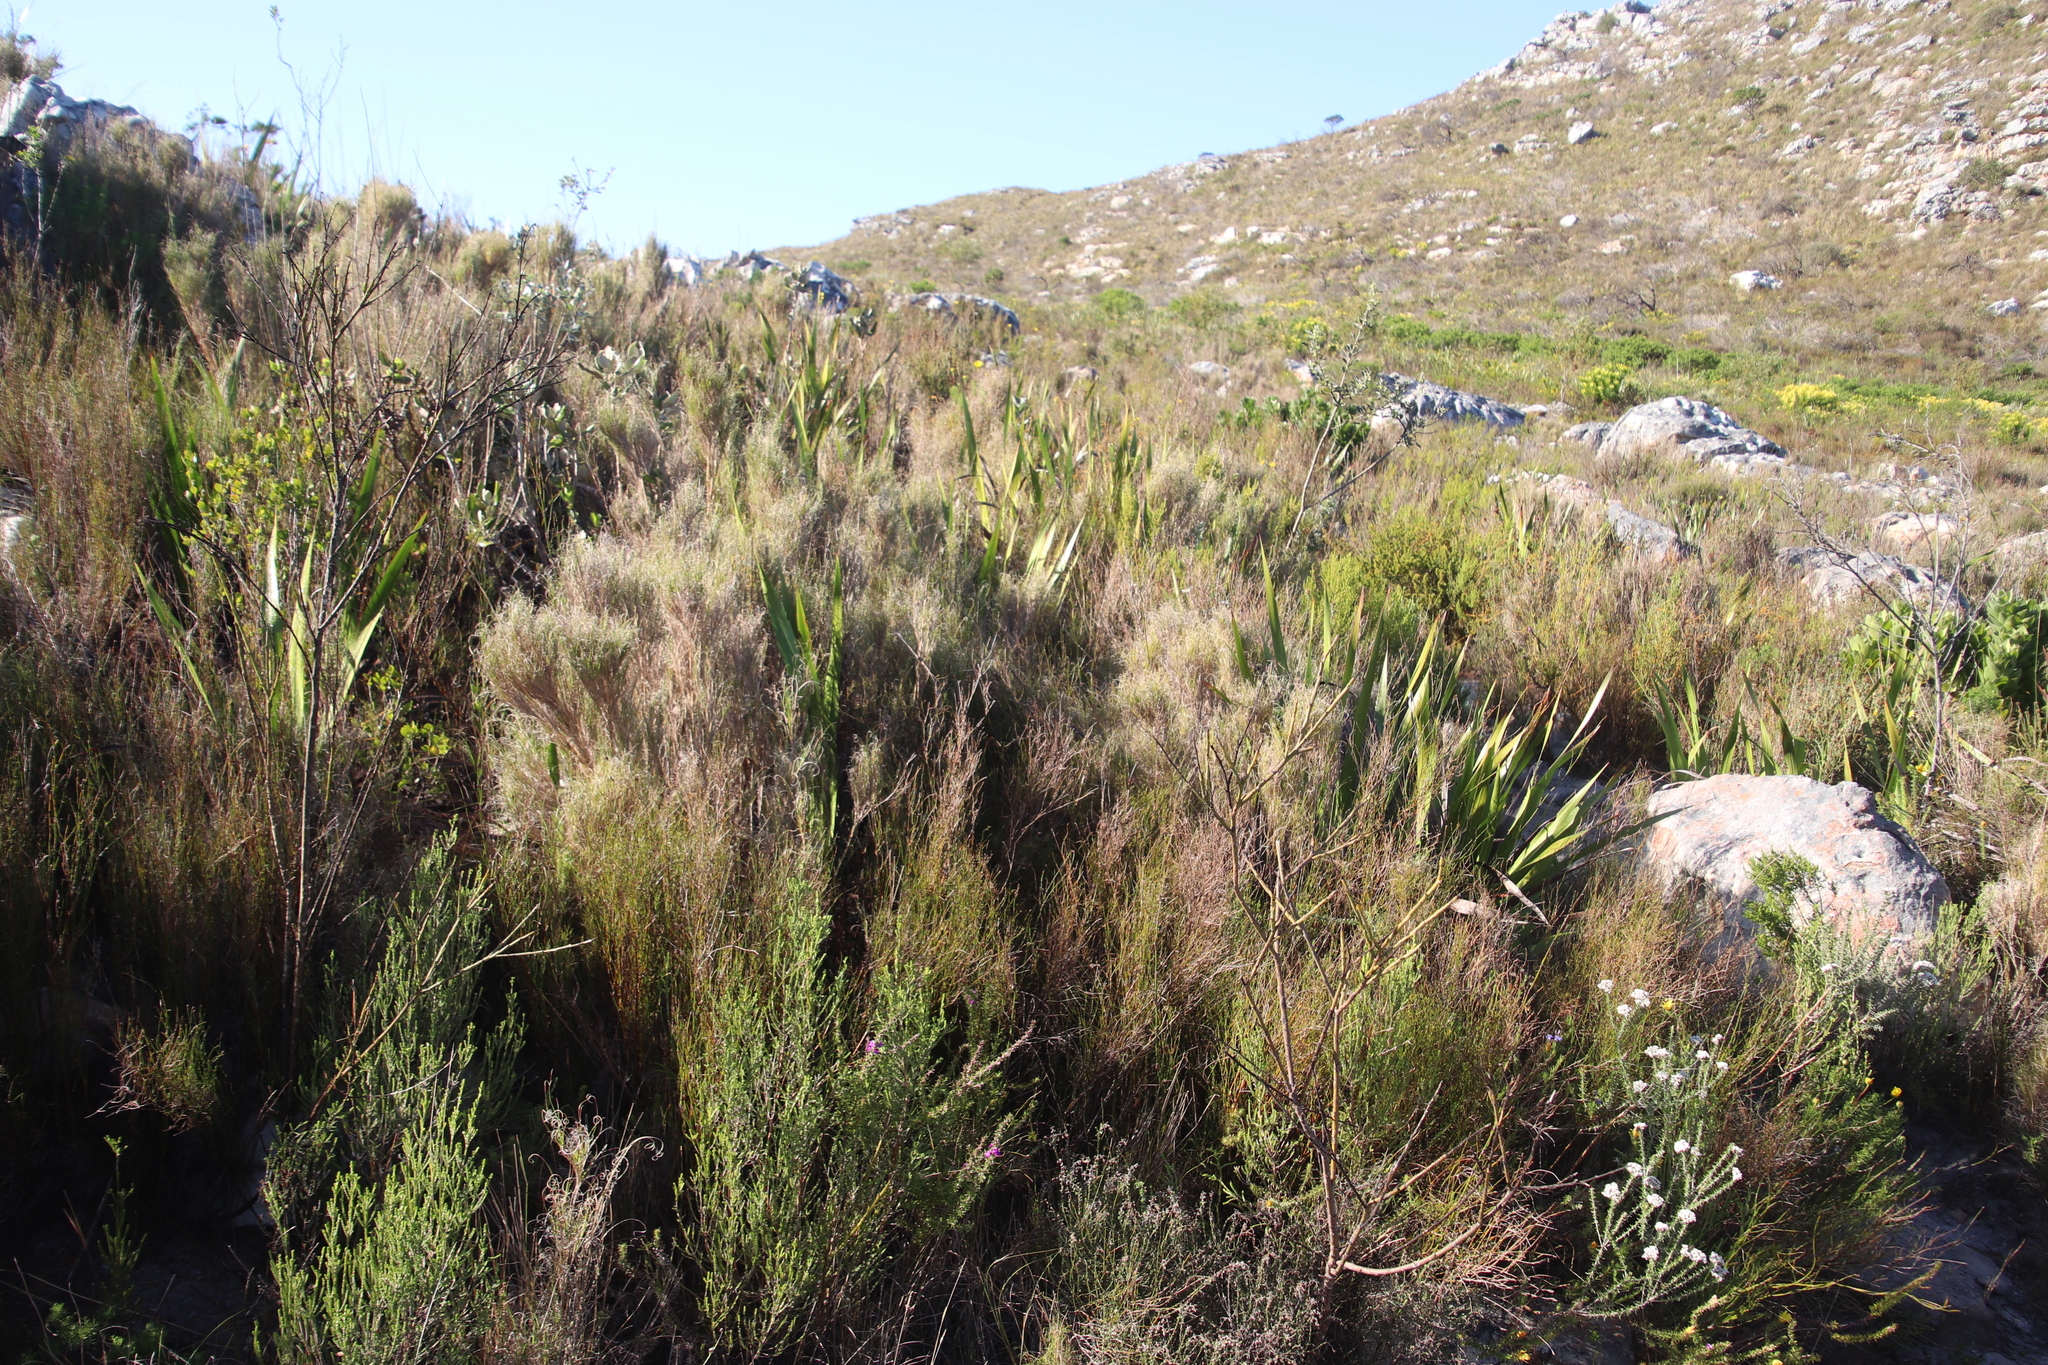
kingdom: Plantae
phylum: Tracheophyta
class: Liliopsida
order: Poales
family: Poaceae
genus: Pseudopentameris
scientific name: Pseudopentameris macrantha
